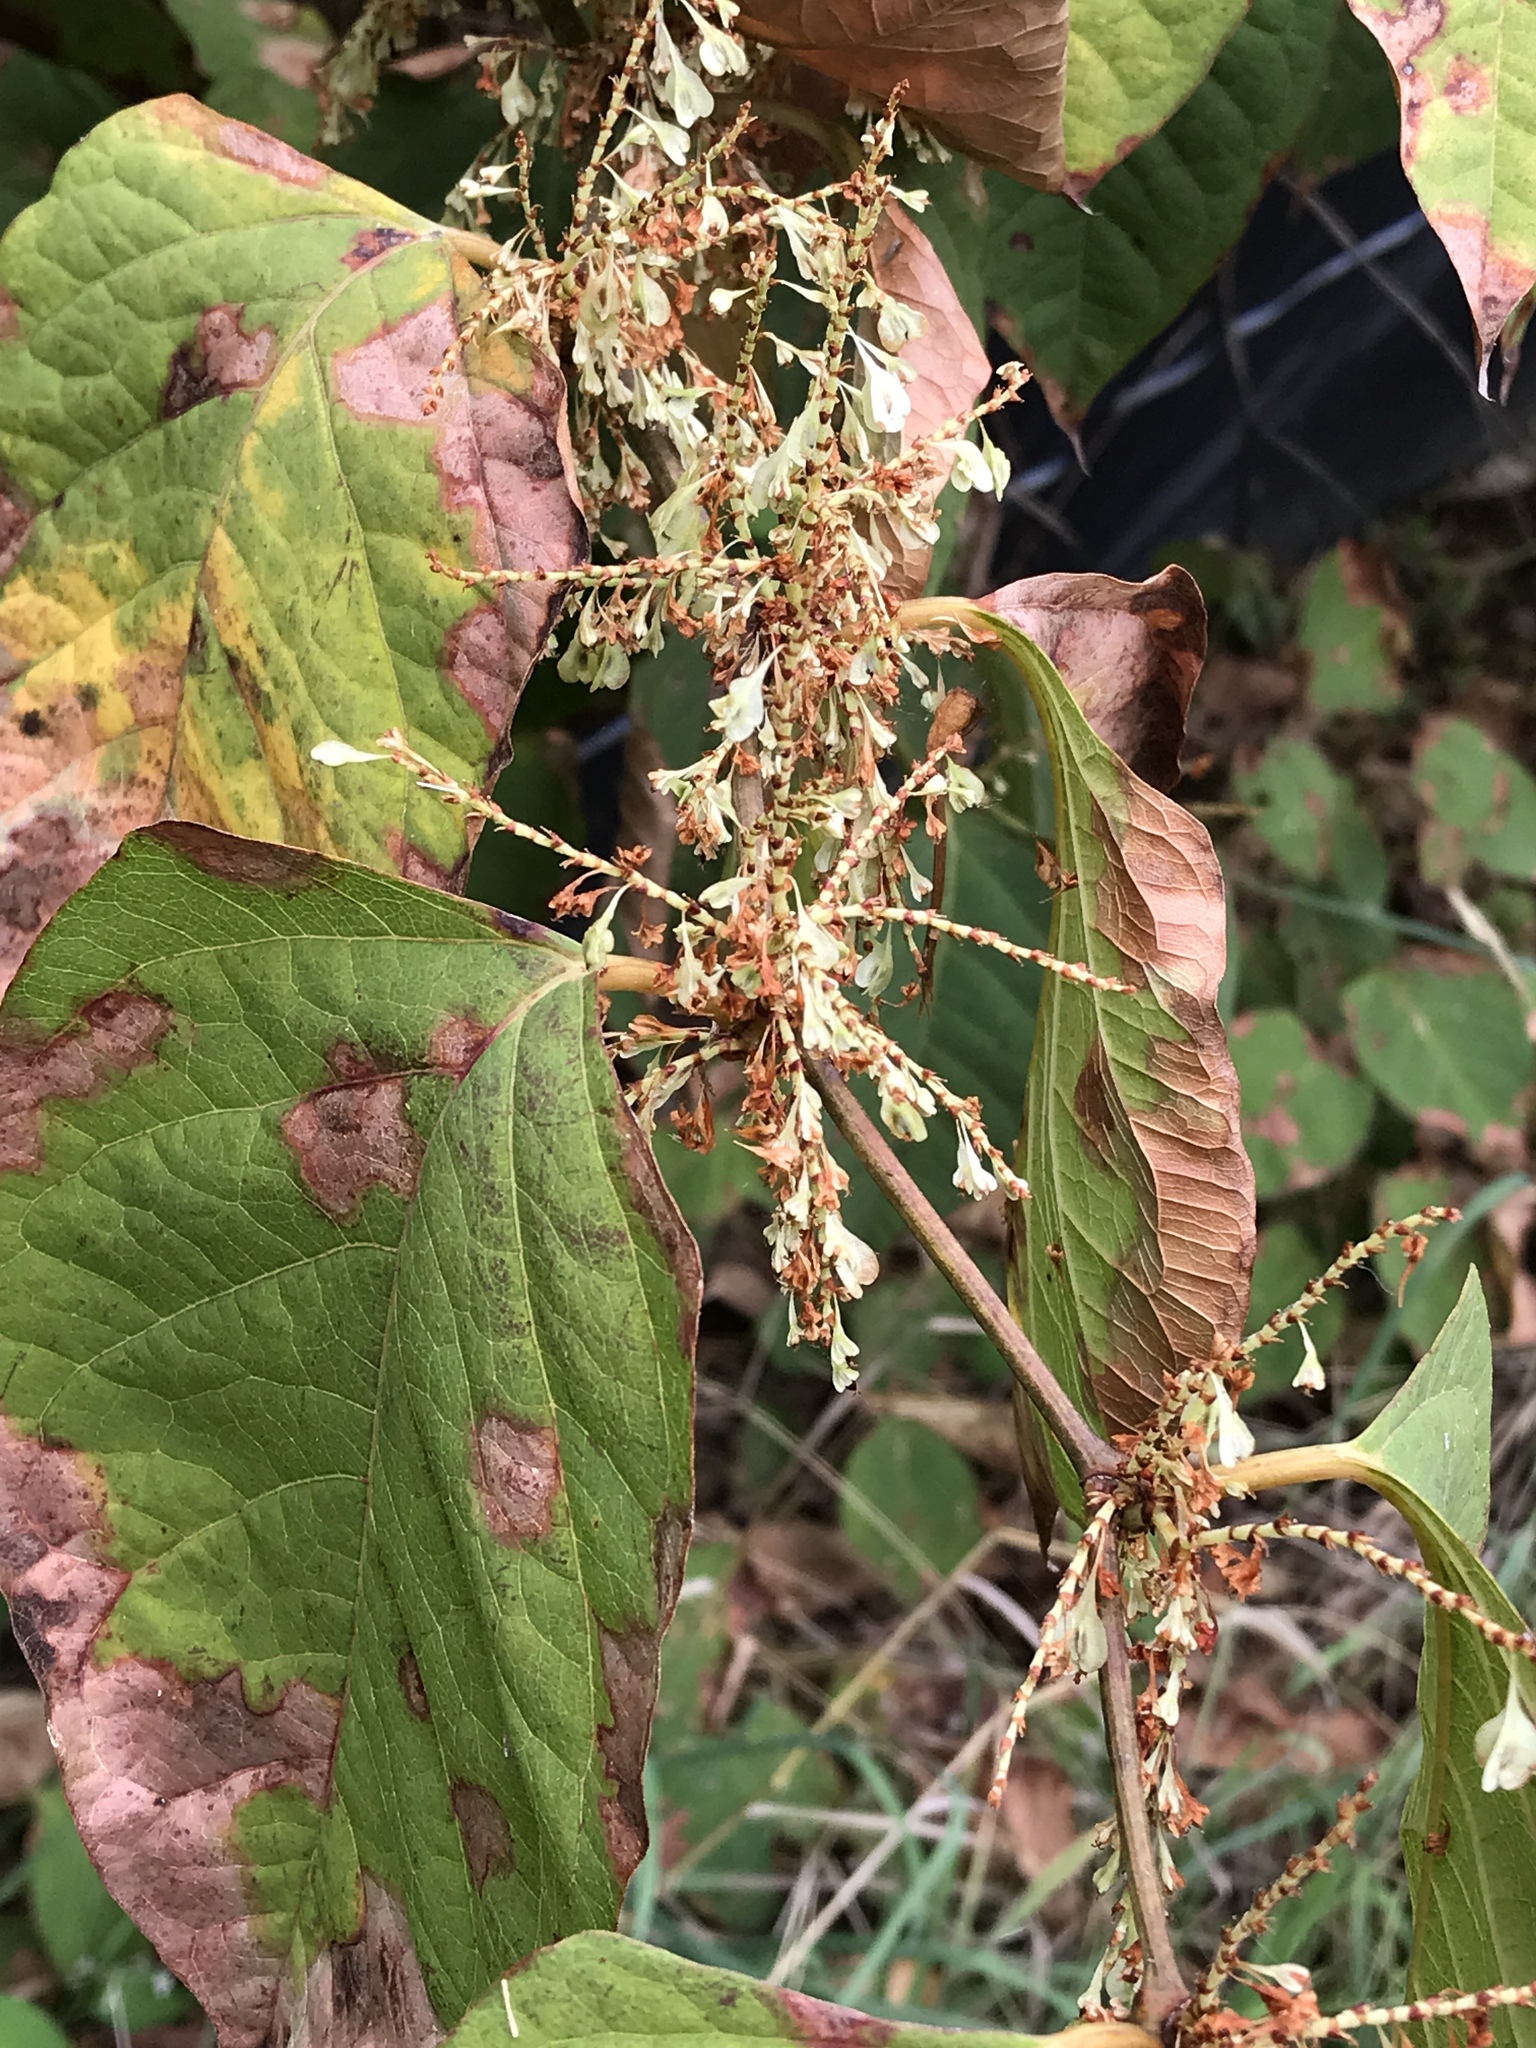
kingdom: Plantae
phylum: Tracheophyta
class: Magnoliopsida
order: Caryophyllales
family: Polygonaceae
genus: Reynoutria
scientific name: Reynoutria japonica
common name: Japanese knotweed
